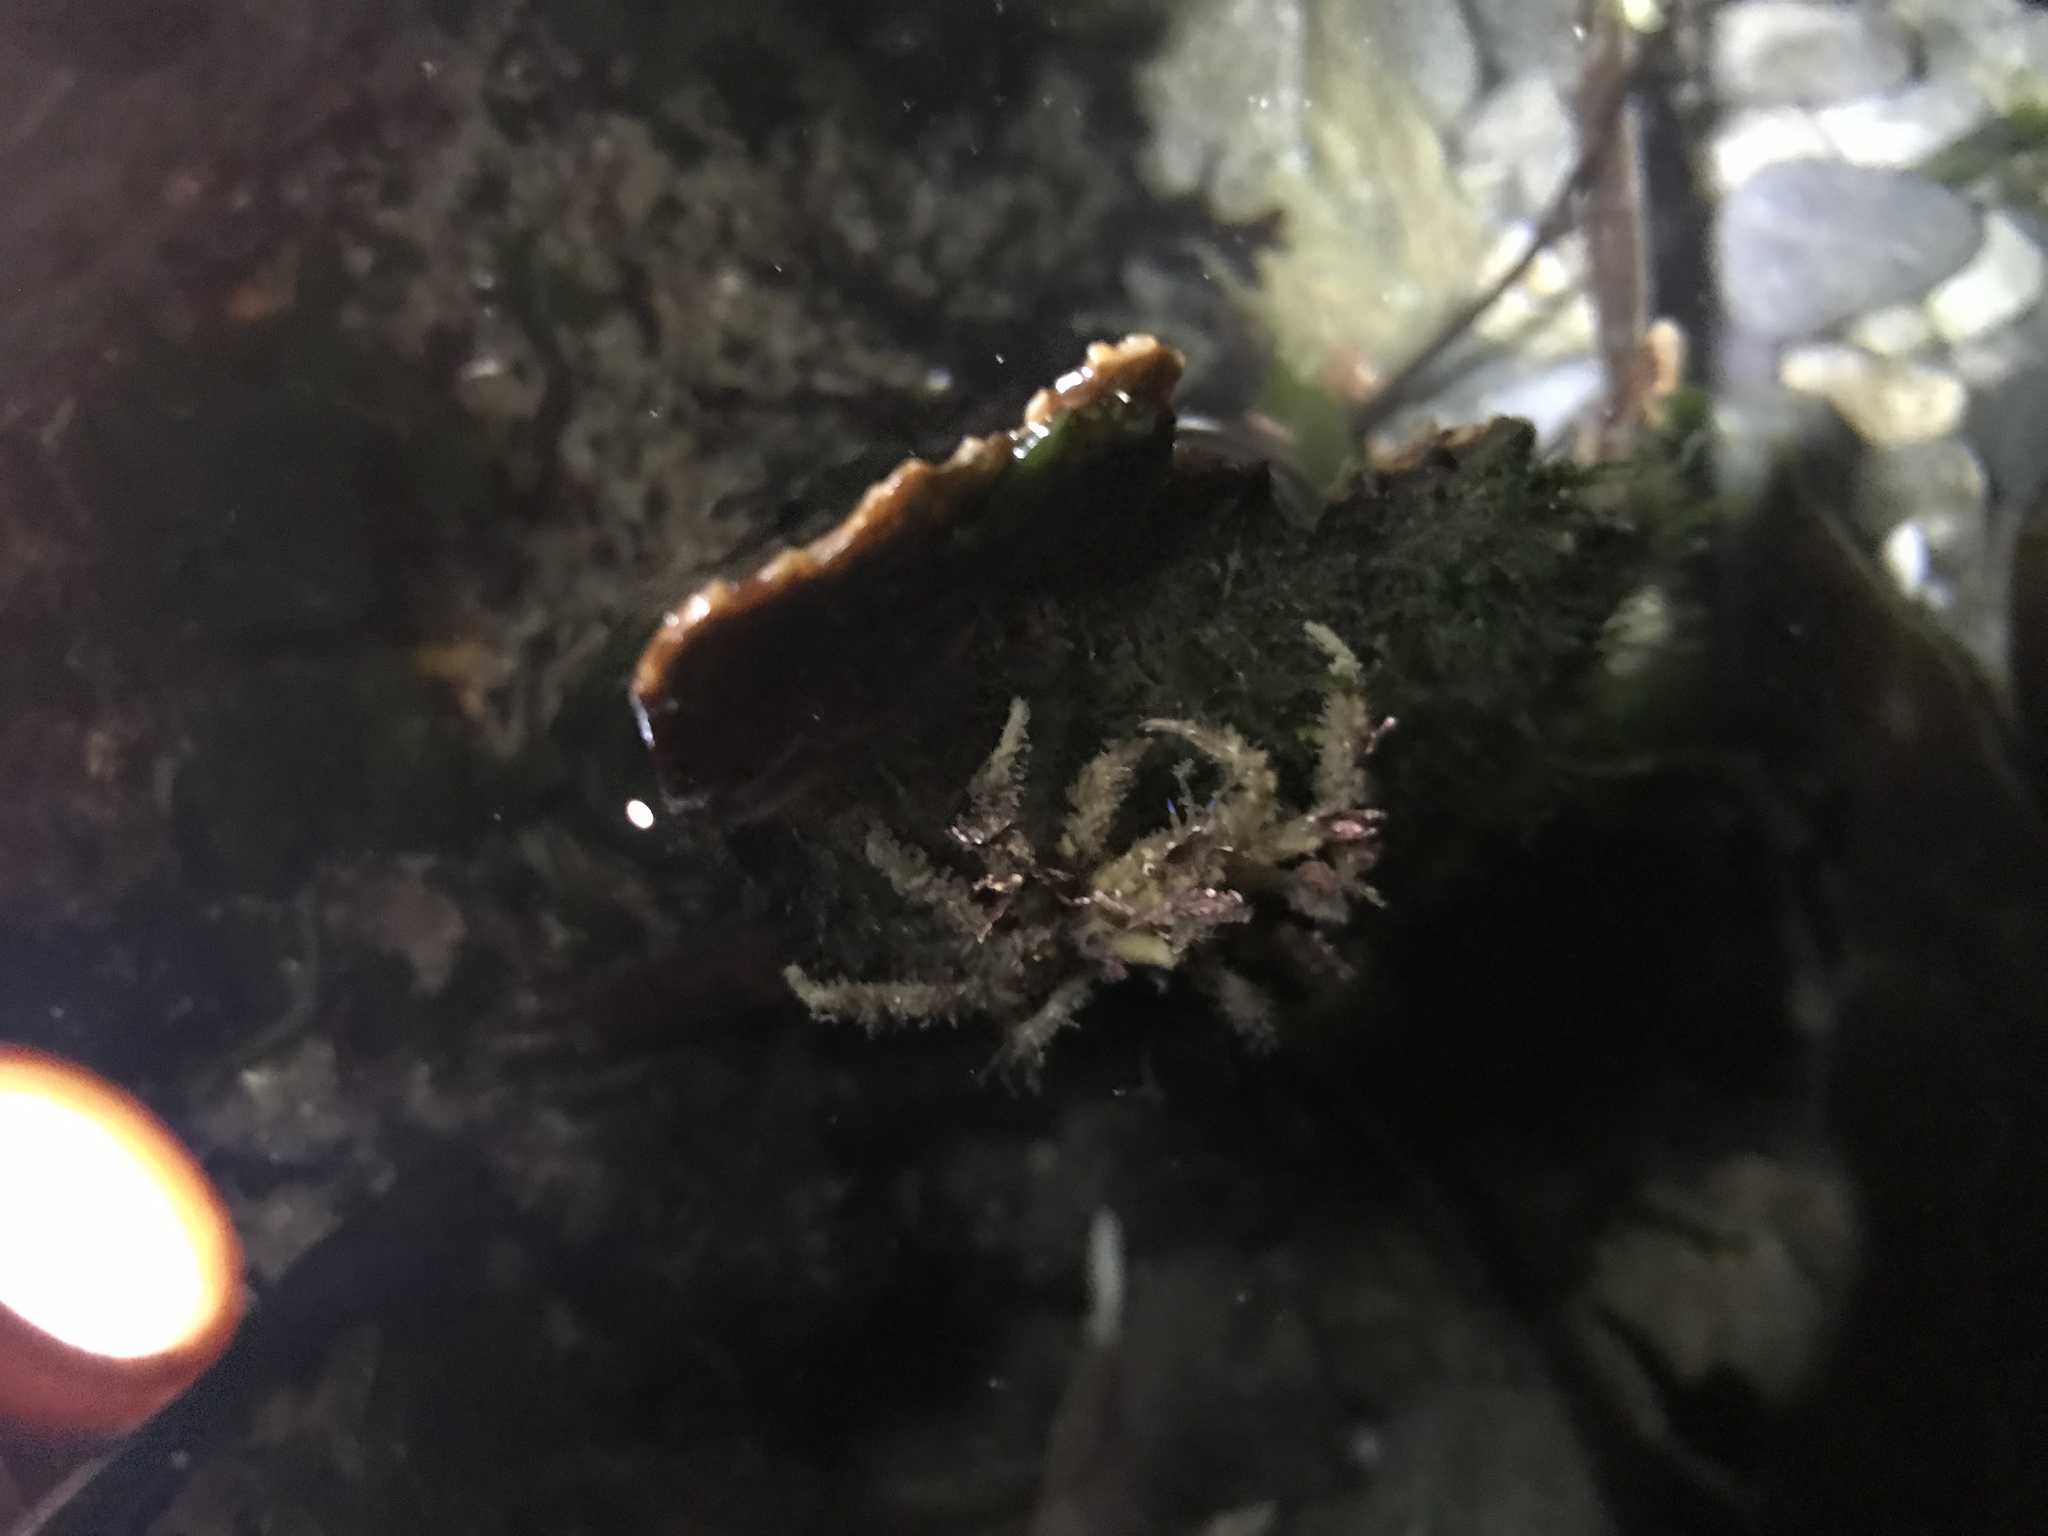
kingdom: Animalia
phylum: Arthropoda
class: Malacostraca
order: Decapoda
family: Oregoniidae
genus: Oregonia
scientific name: Oregonia gracilis
